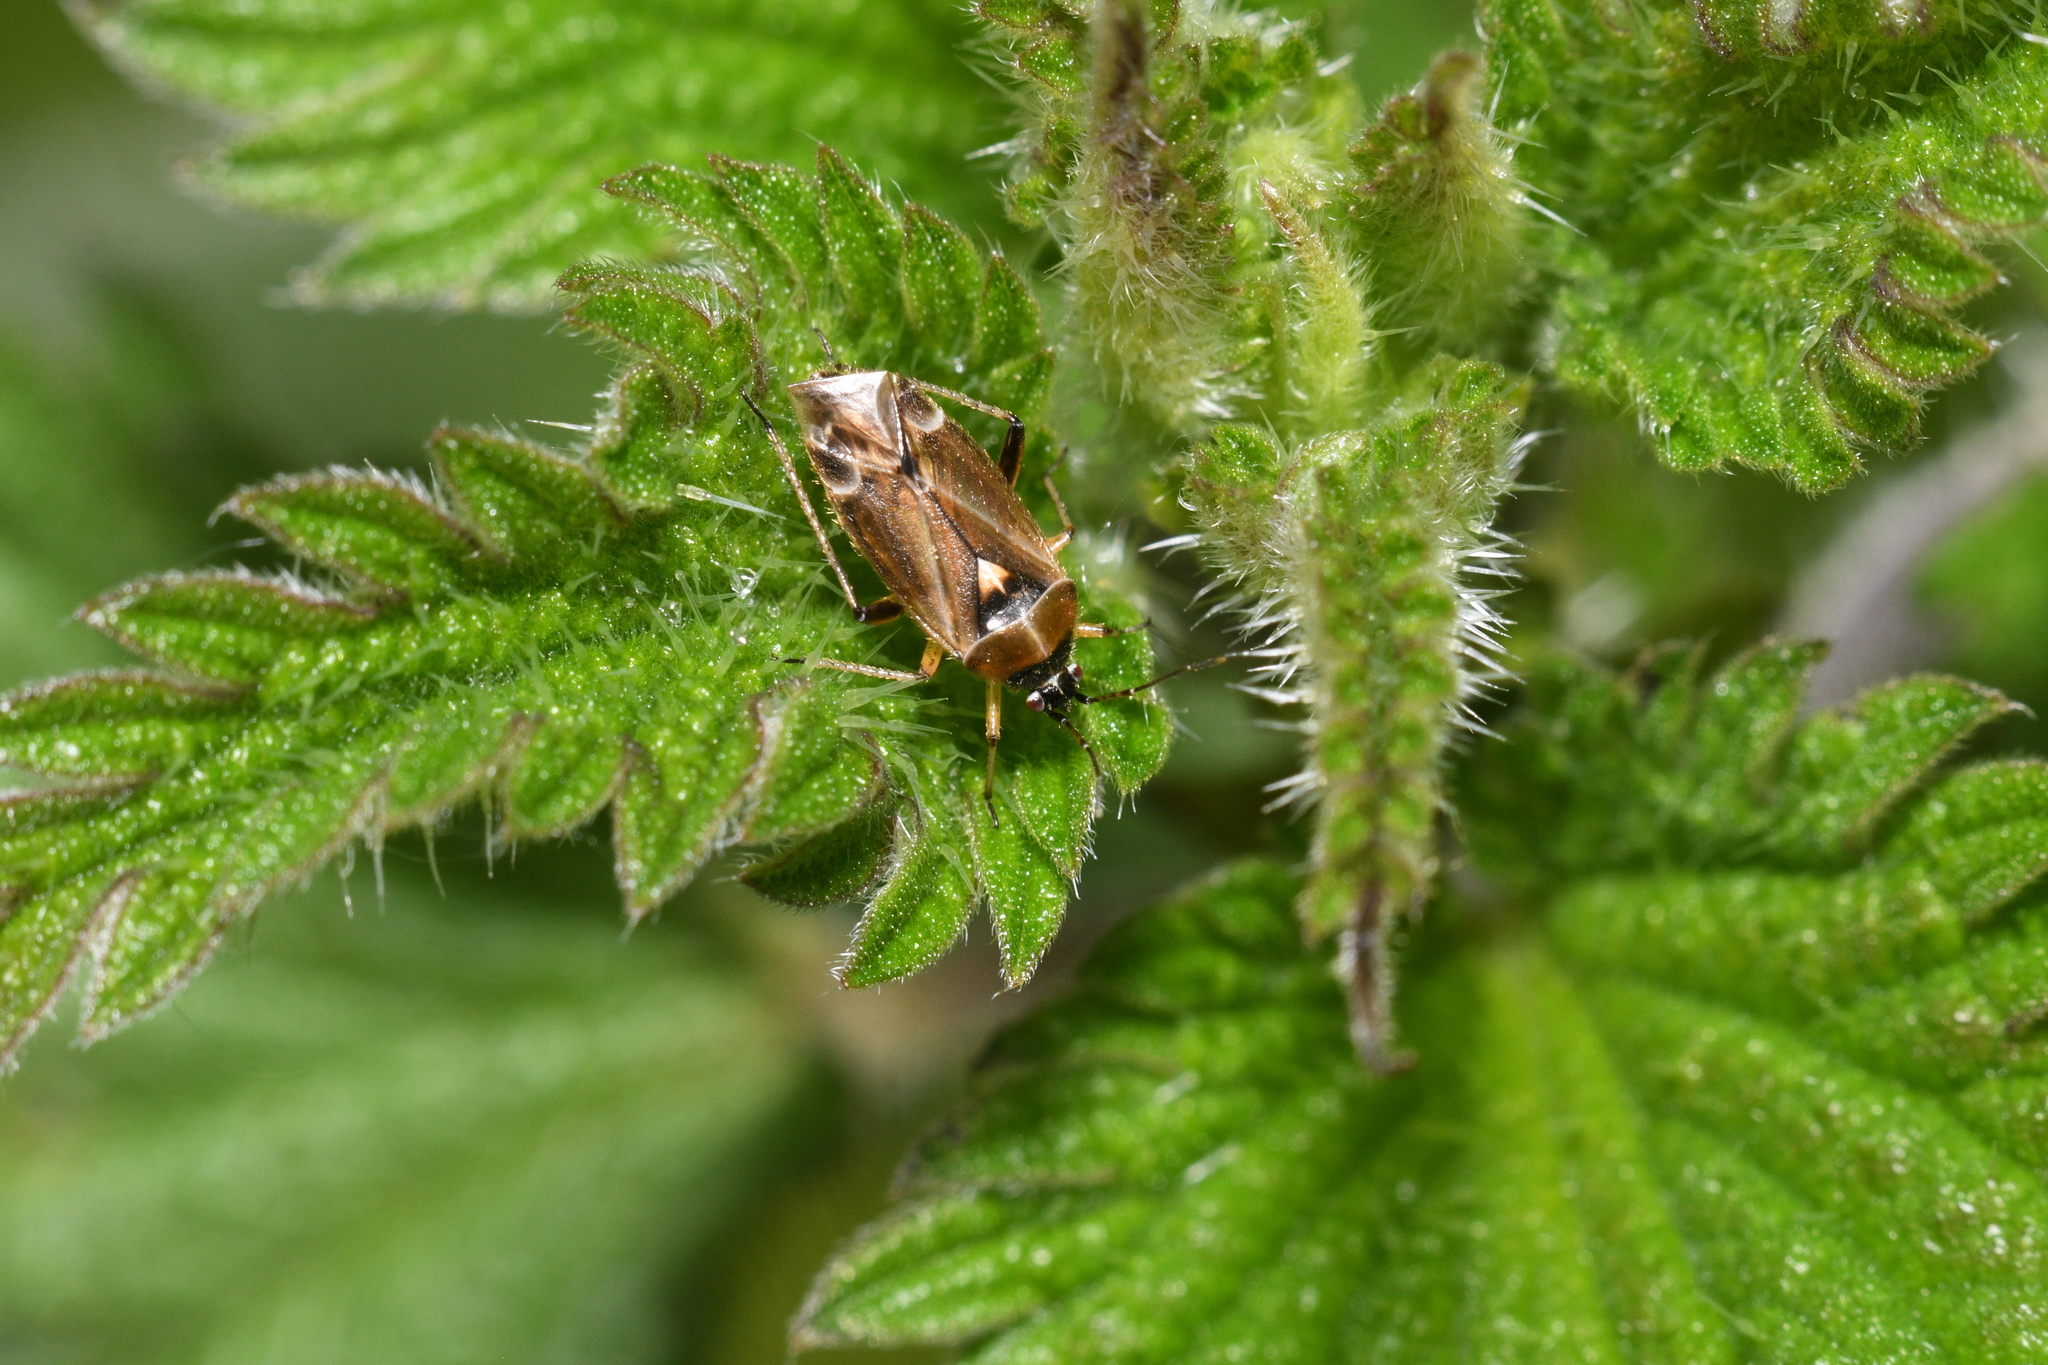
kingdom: Animalia
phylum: Arthropoda
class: Insecta
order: Hemiptera
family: Miridae
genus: Harpocera
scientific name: Harpocera thoracica
